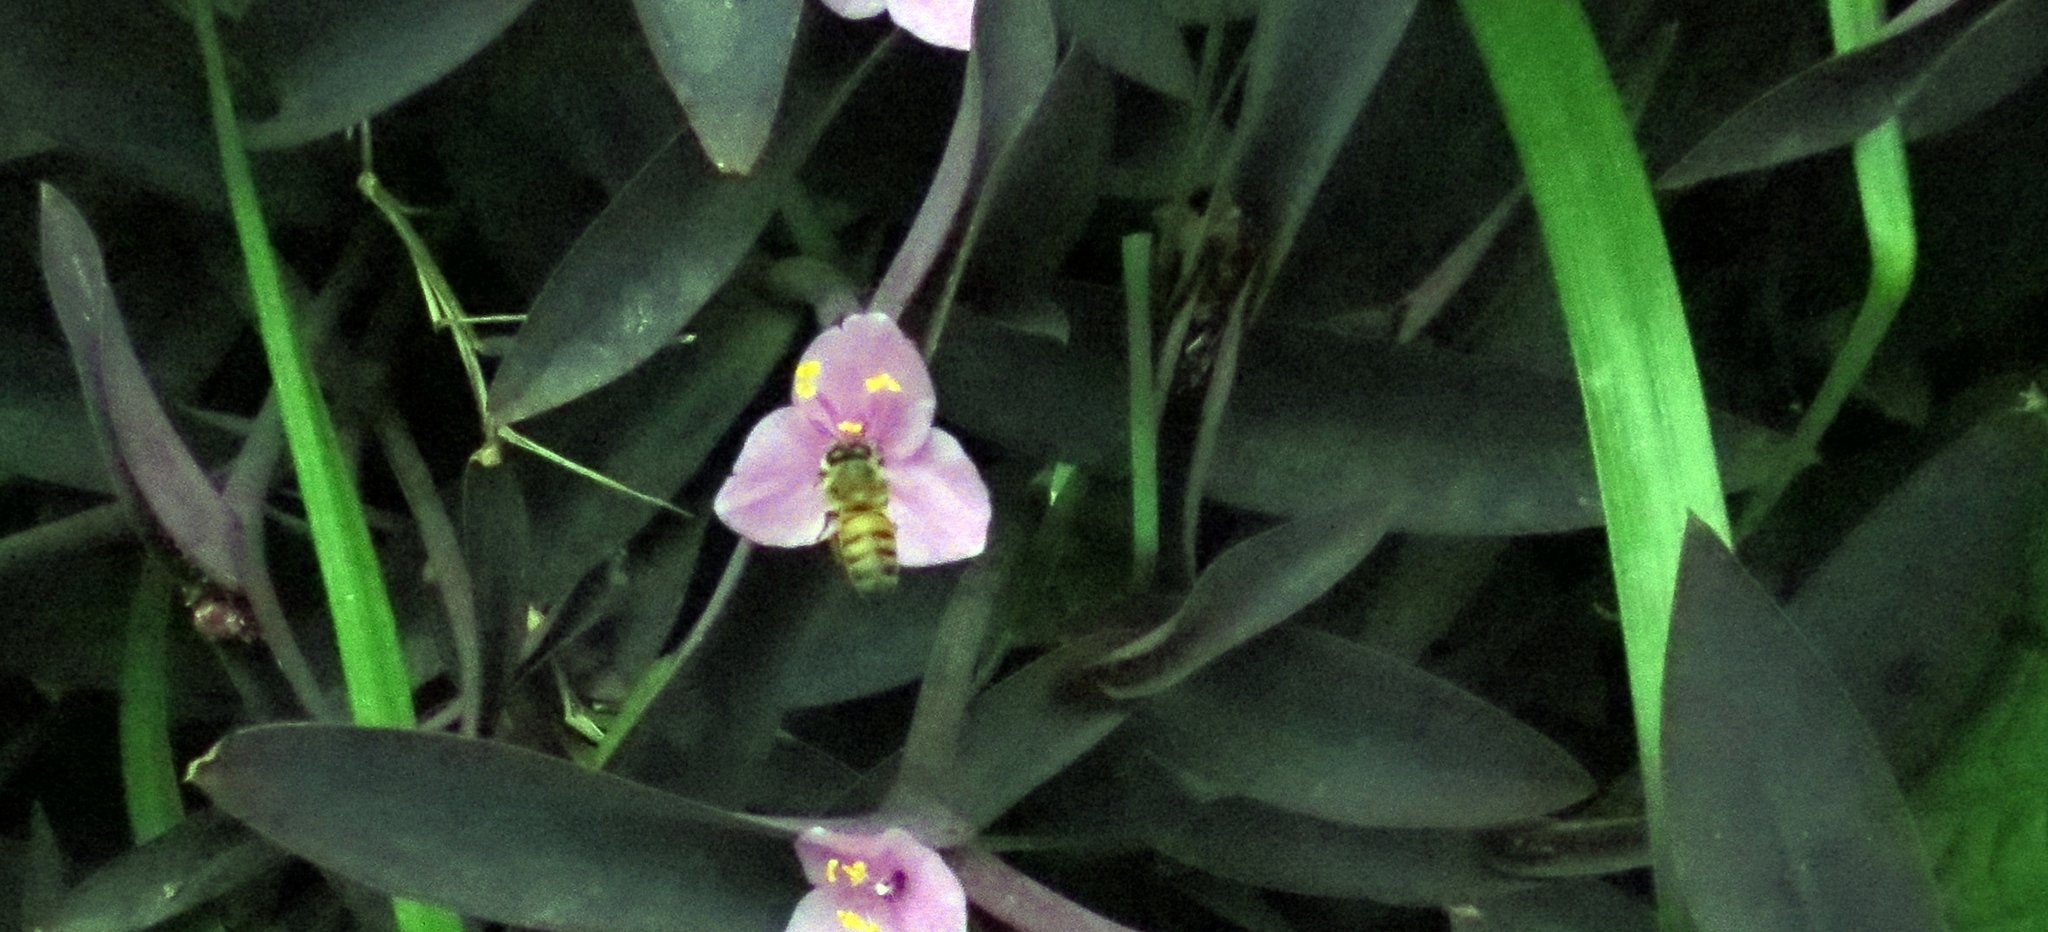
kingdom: Plantae
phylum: Tracheophyta
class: Liliopsida
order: Commelinales
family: Commelinaceae
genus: Tradescantia
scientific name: Tradescantia pallida
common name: Purpleheart
